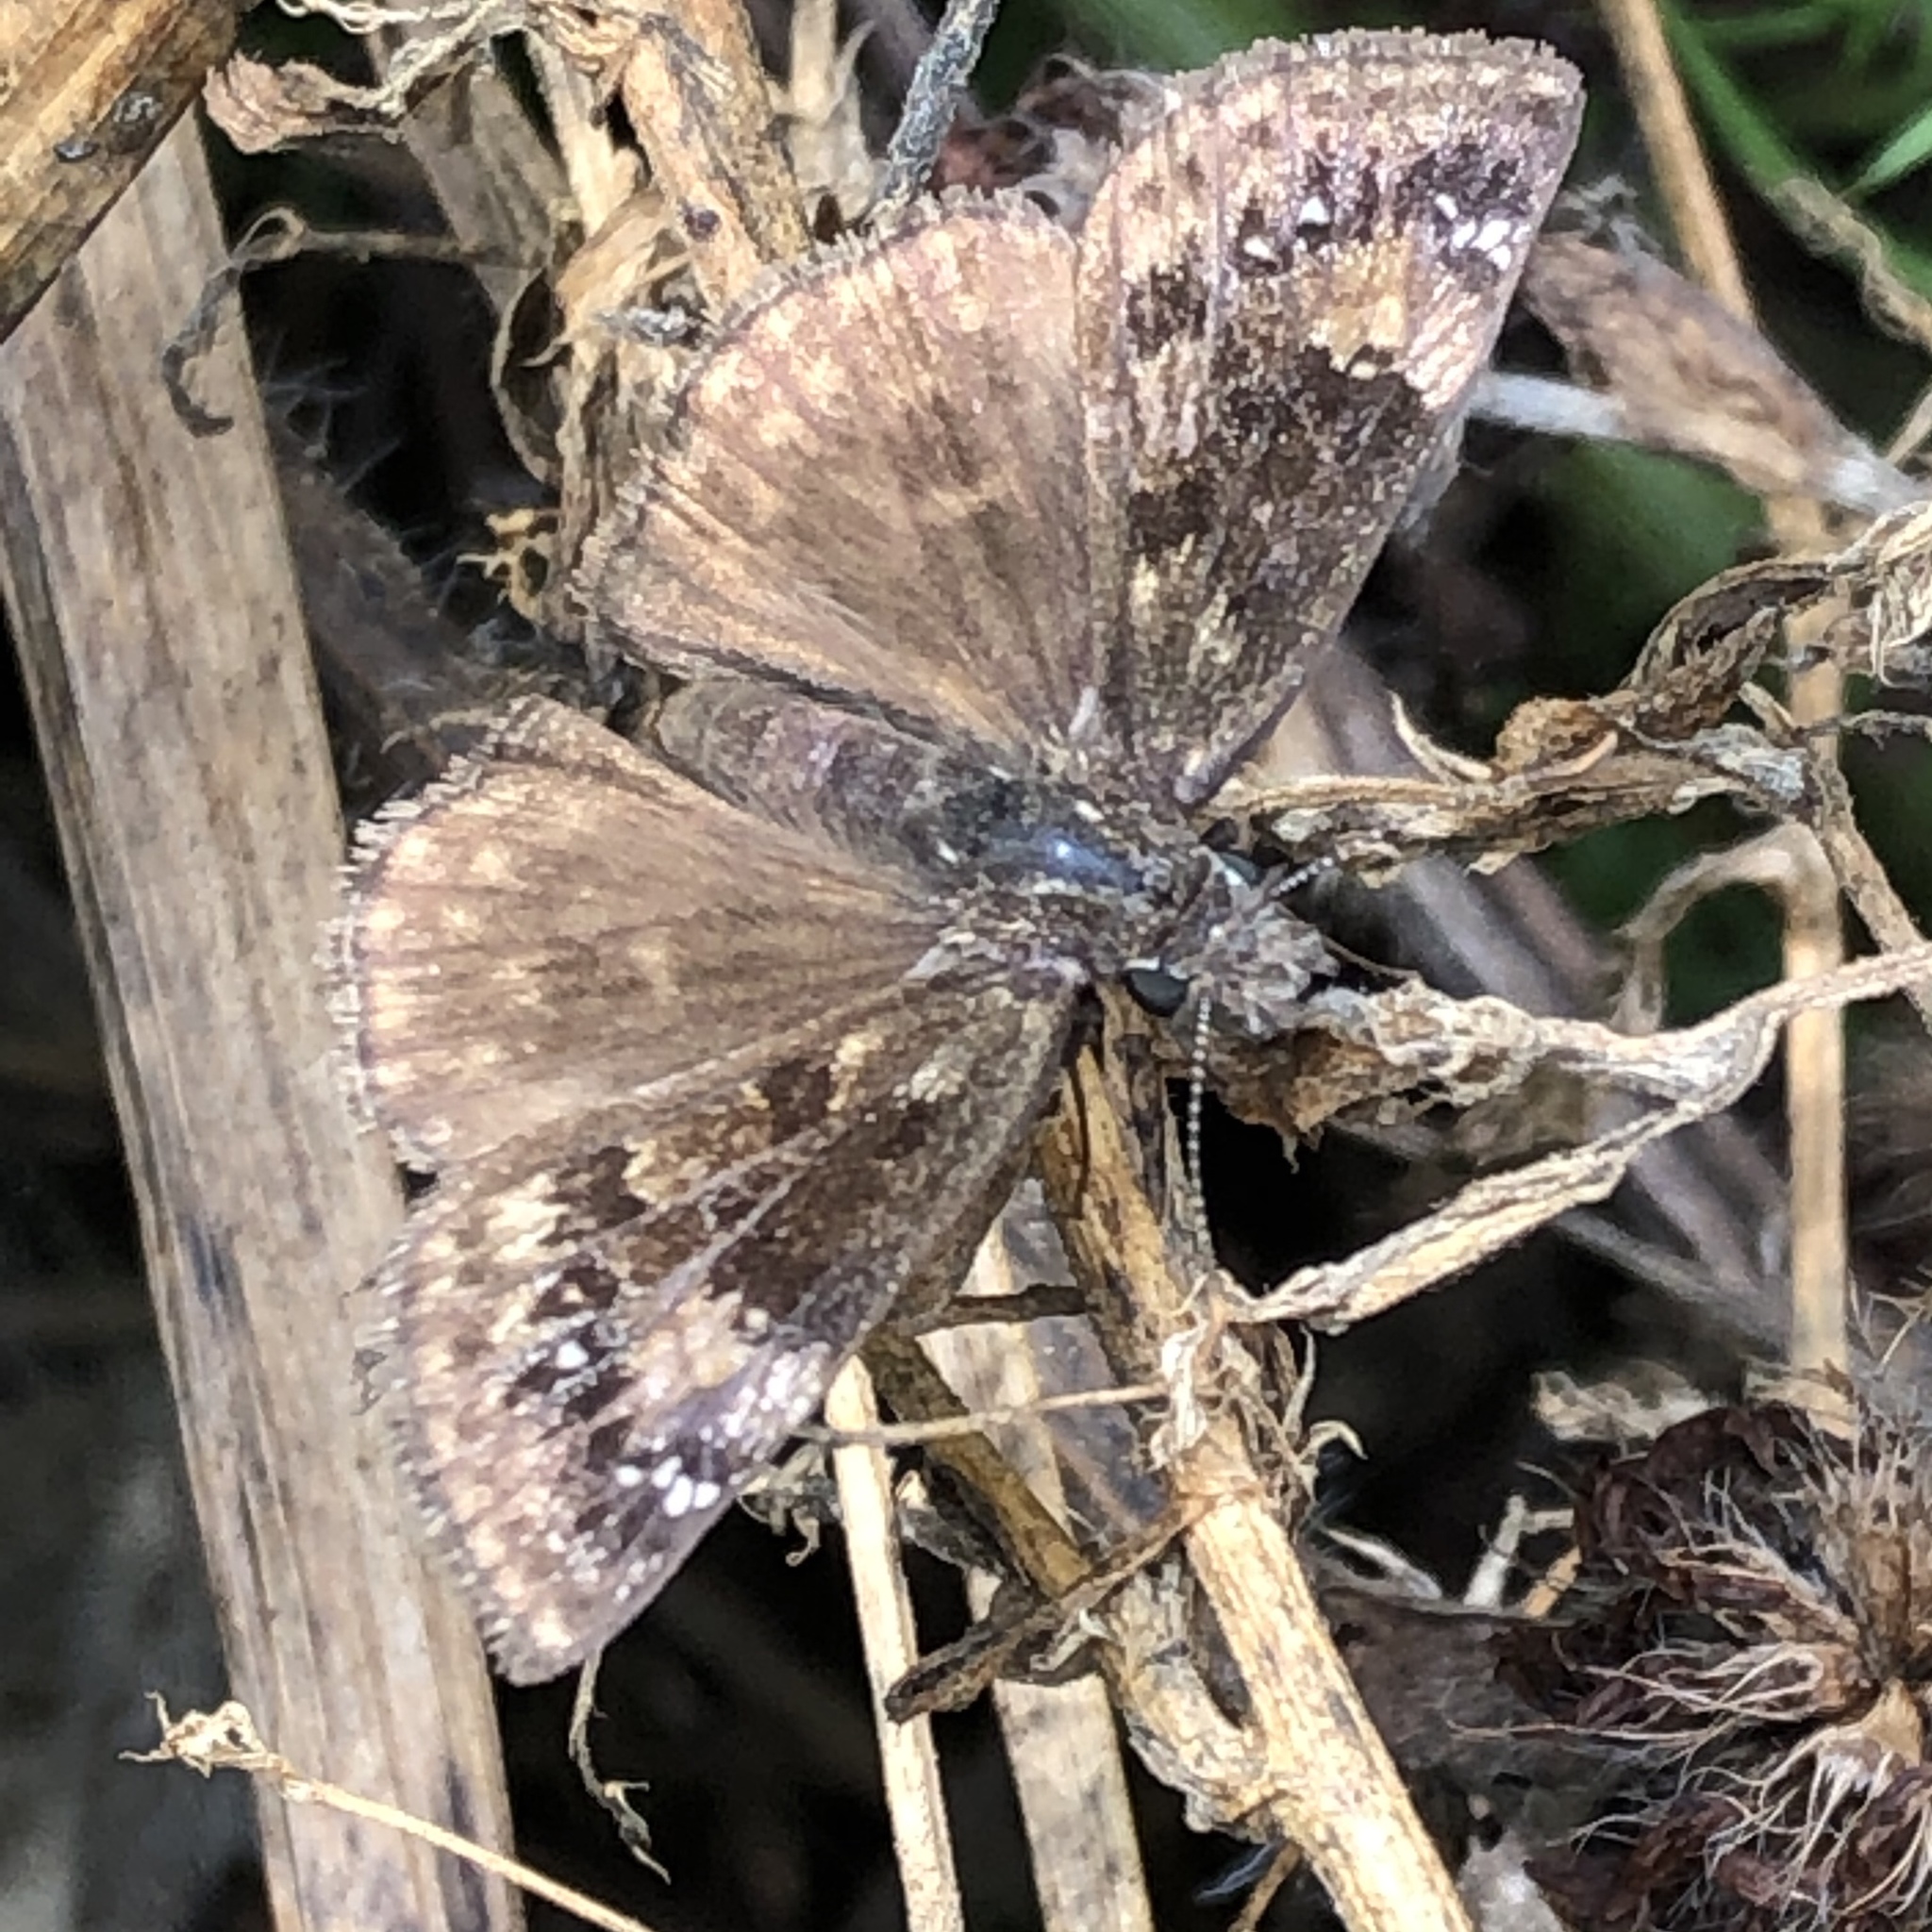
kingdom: Animalia
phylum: Arthropoda
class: Insecta
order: Lepidoptera
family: Hesperiidae
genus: Erynnis
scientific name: Erynnis baptisiae
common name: Wild indigo duskywing
